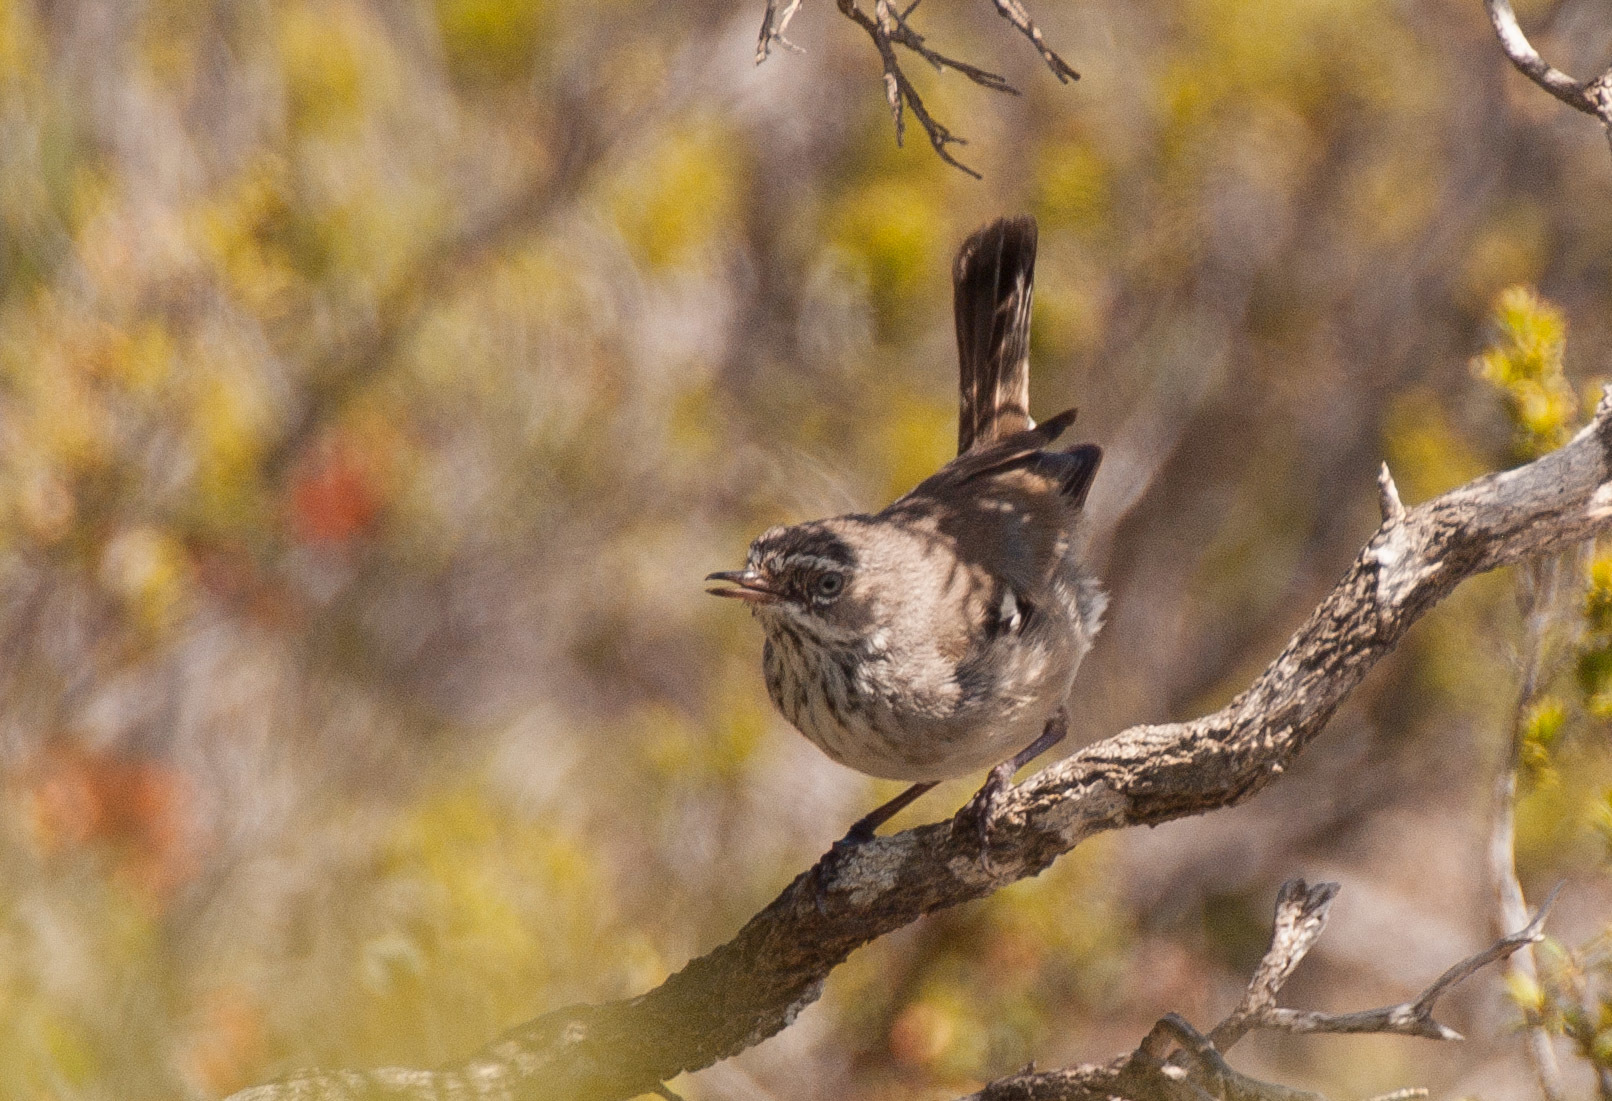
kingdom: Animalia
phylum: Chordata
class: Aves
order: Passeriformes
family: Acanthizidae
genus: Sericornis
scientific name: Sericornis maculatus
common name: Spotted scrubwren
